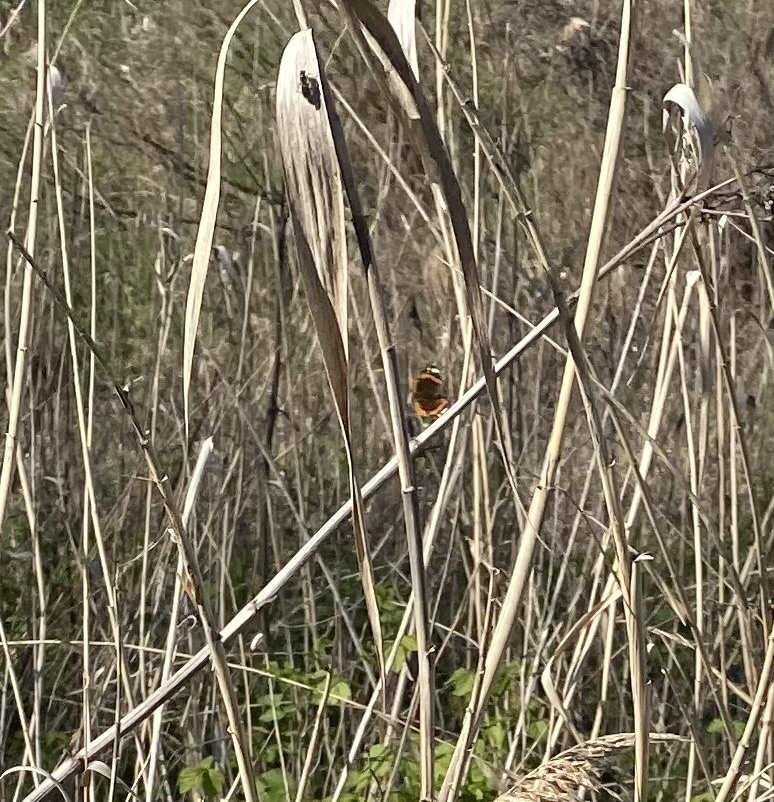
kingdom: Animalia
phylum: Arthropoda
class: Insecta
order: Lepidoptera
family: Nymphalidae
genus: Vanessa
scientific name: Vanessa atalanta
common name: Red admiral
